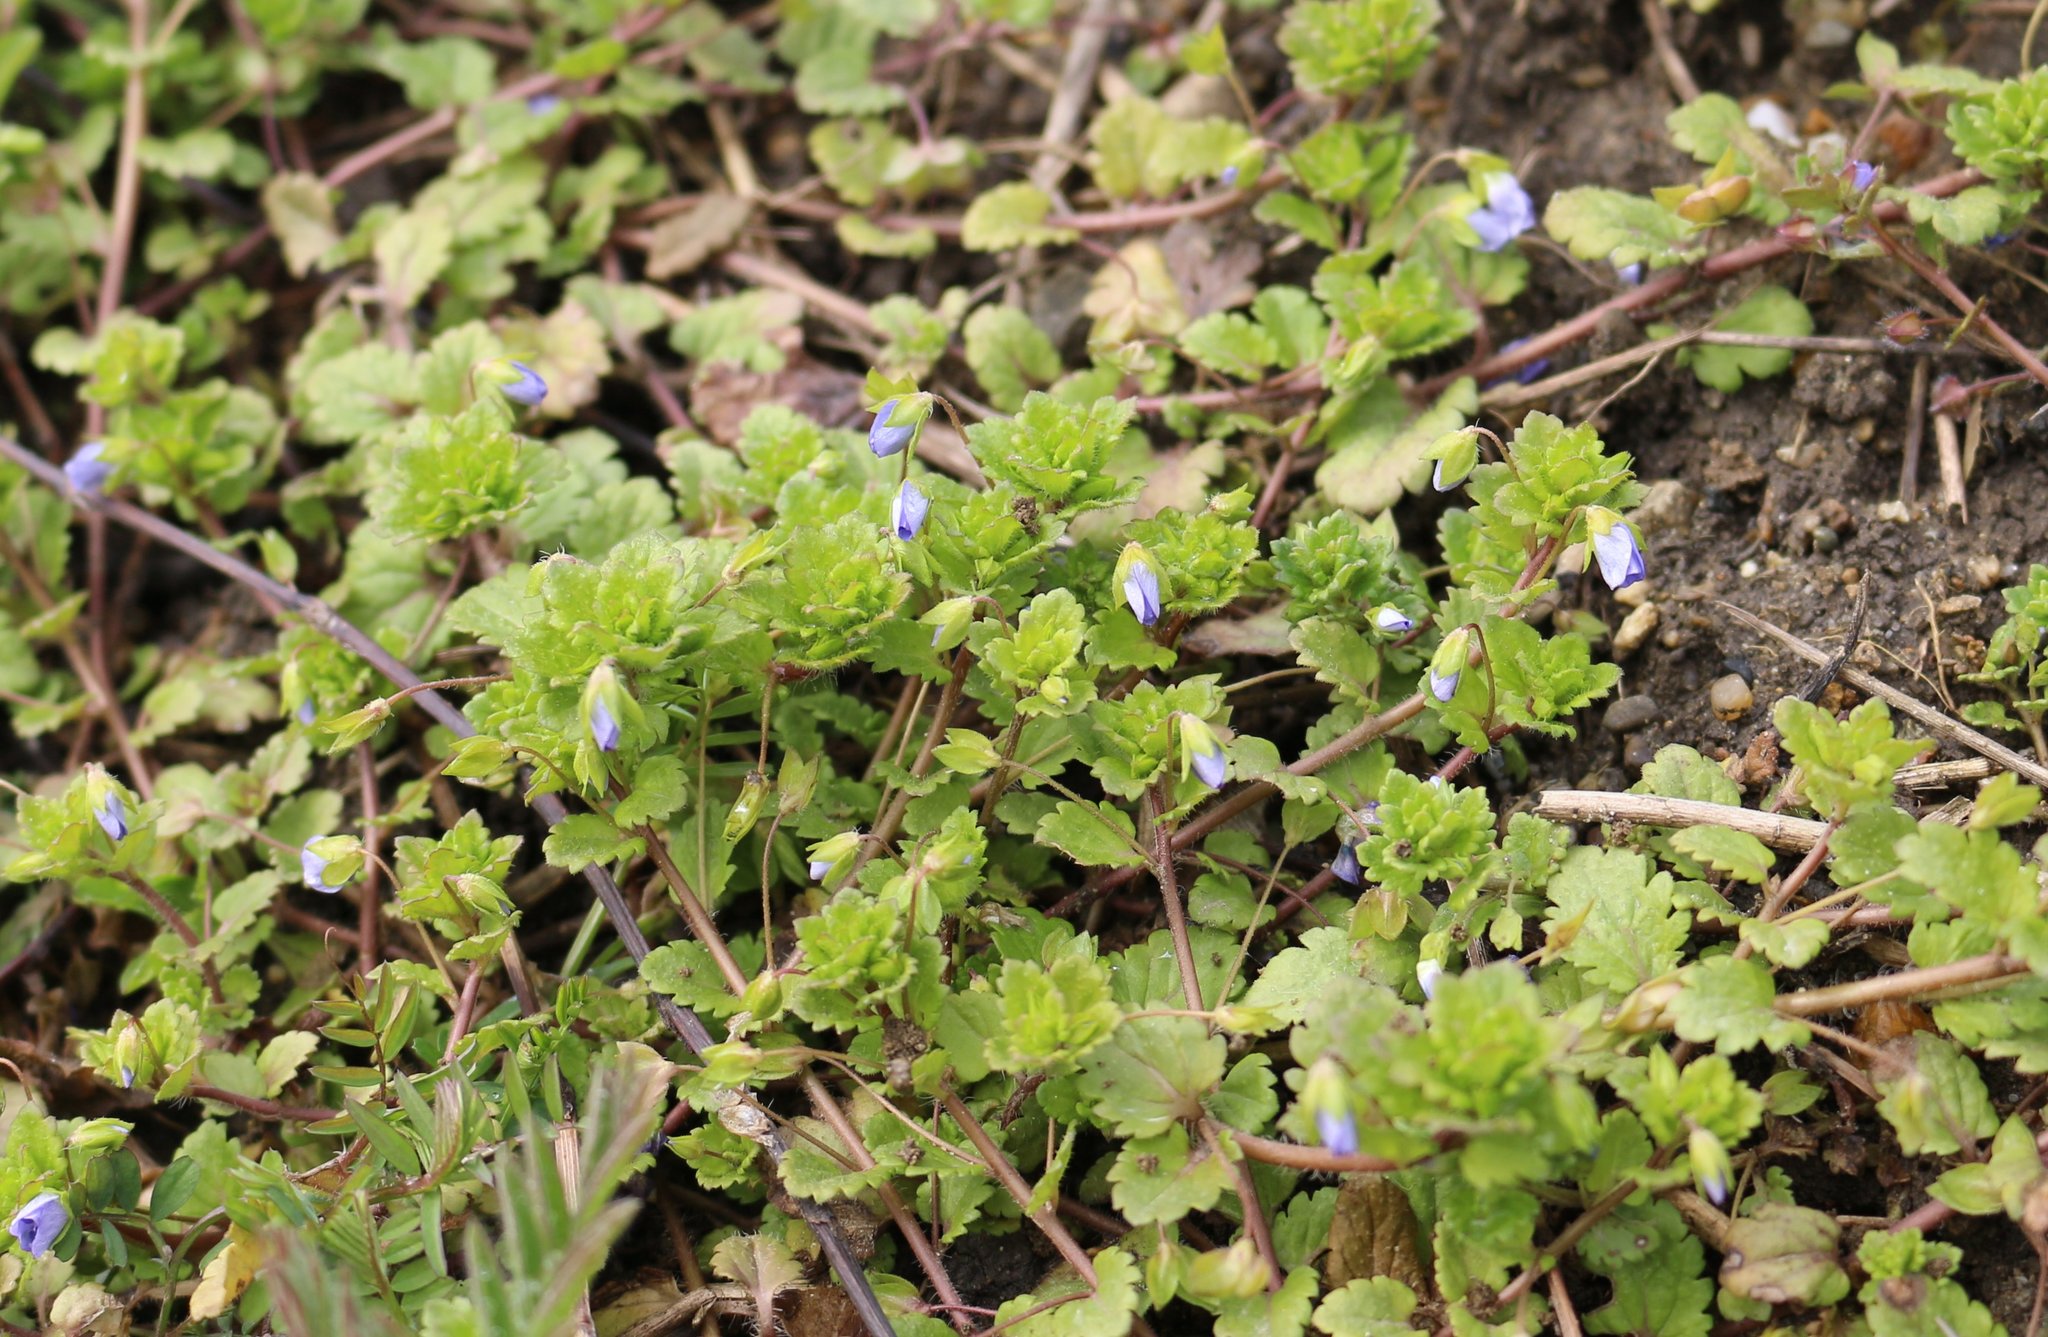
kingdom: Plantae
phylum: Tracheophyta
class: Magnoliopsida
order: Lamiales
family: Plantaginaceae
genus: Veronica
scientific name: Veronica persica
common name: Common field-speedwell
